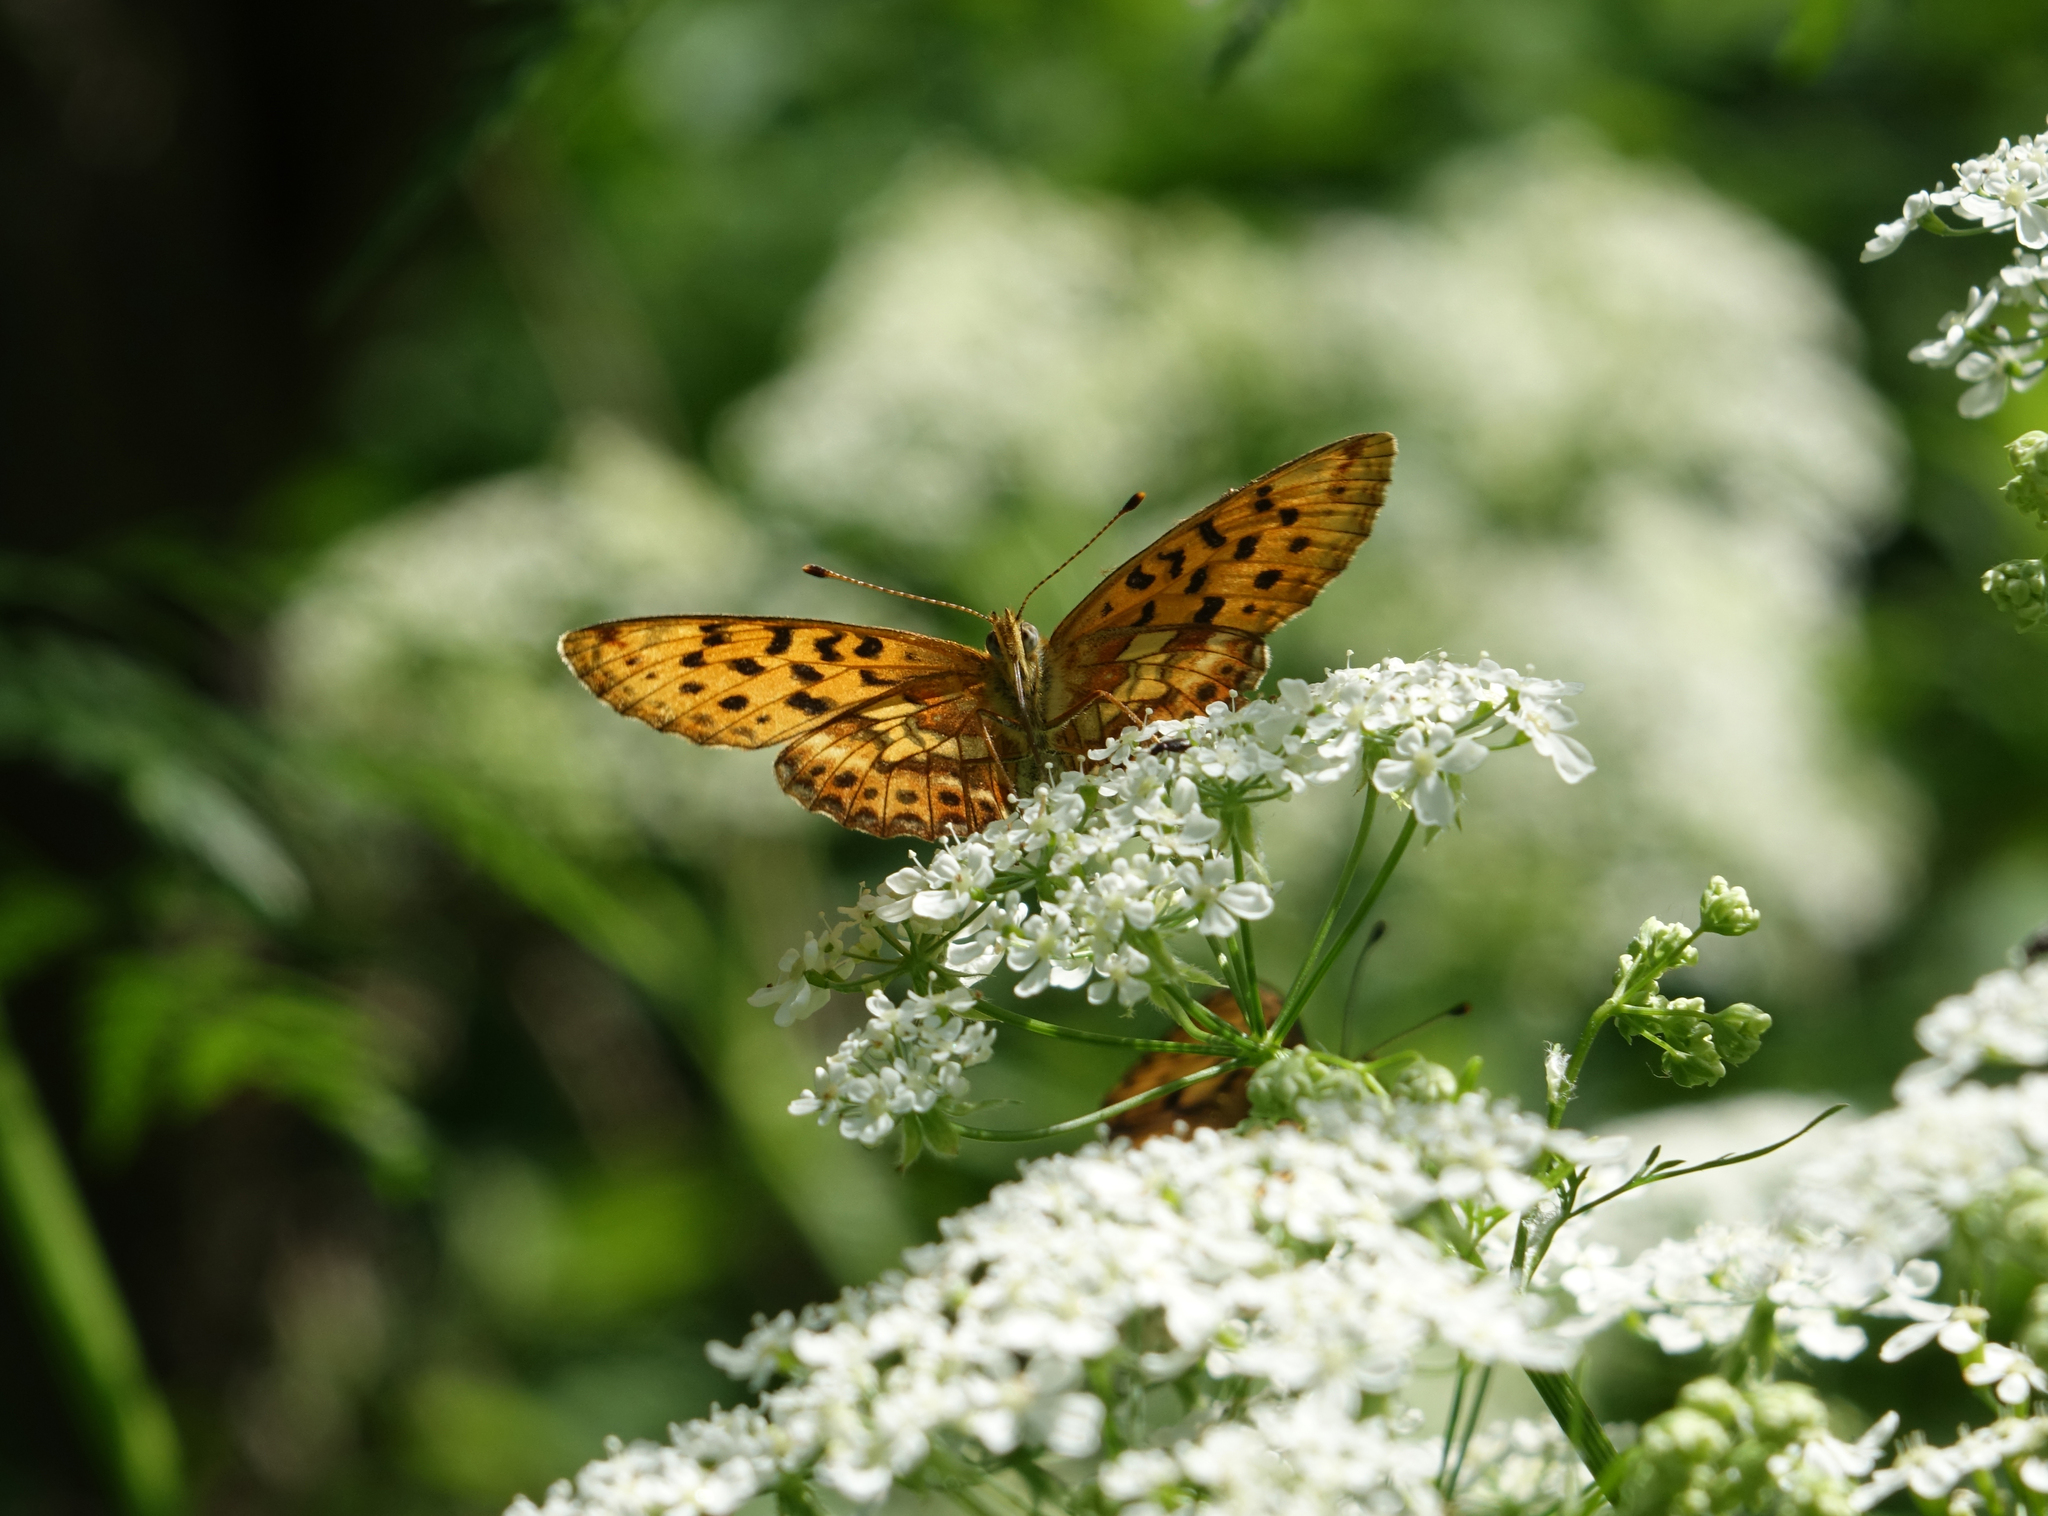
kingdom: Animalia
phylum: Arthropoda
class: Insecta
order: Lepidoptera
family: Nymphalidae
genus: Boloria
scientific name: Boloria thore
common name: Thor's fritillary
